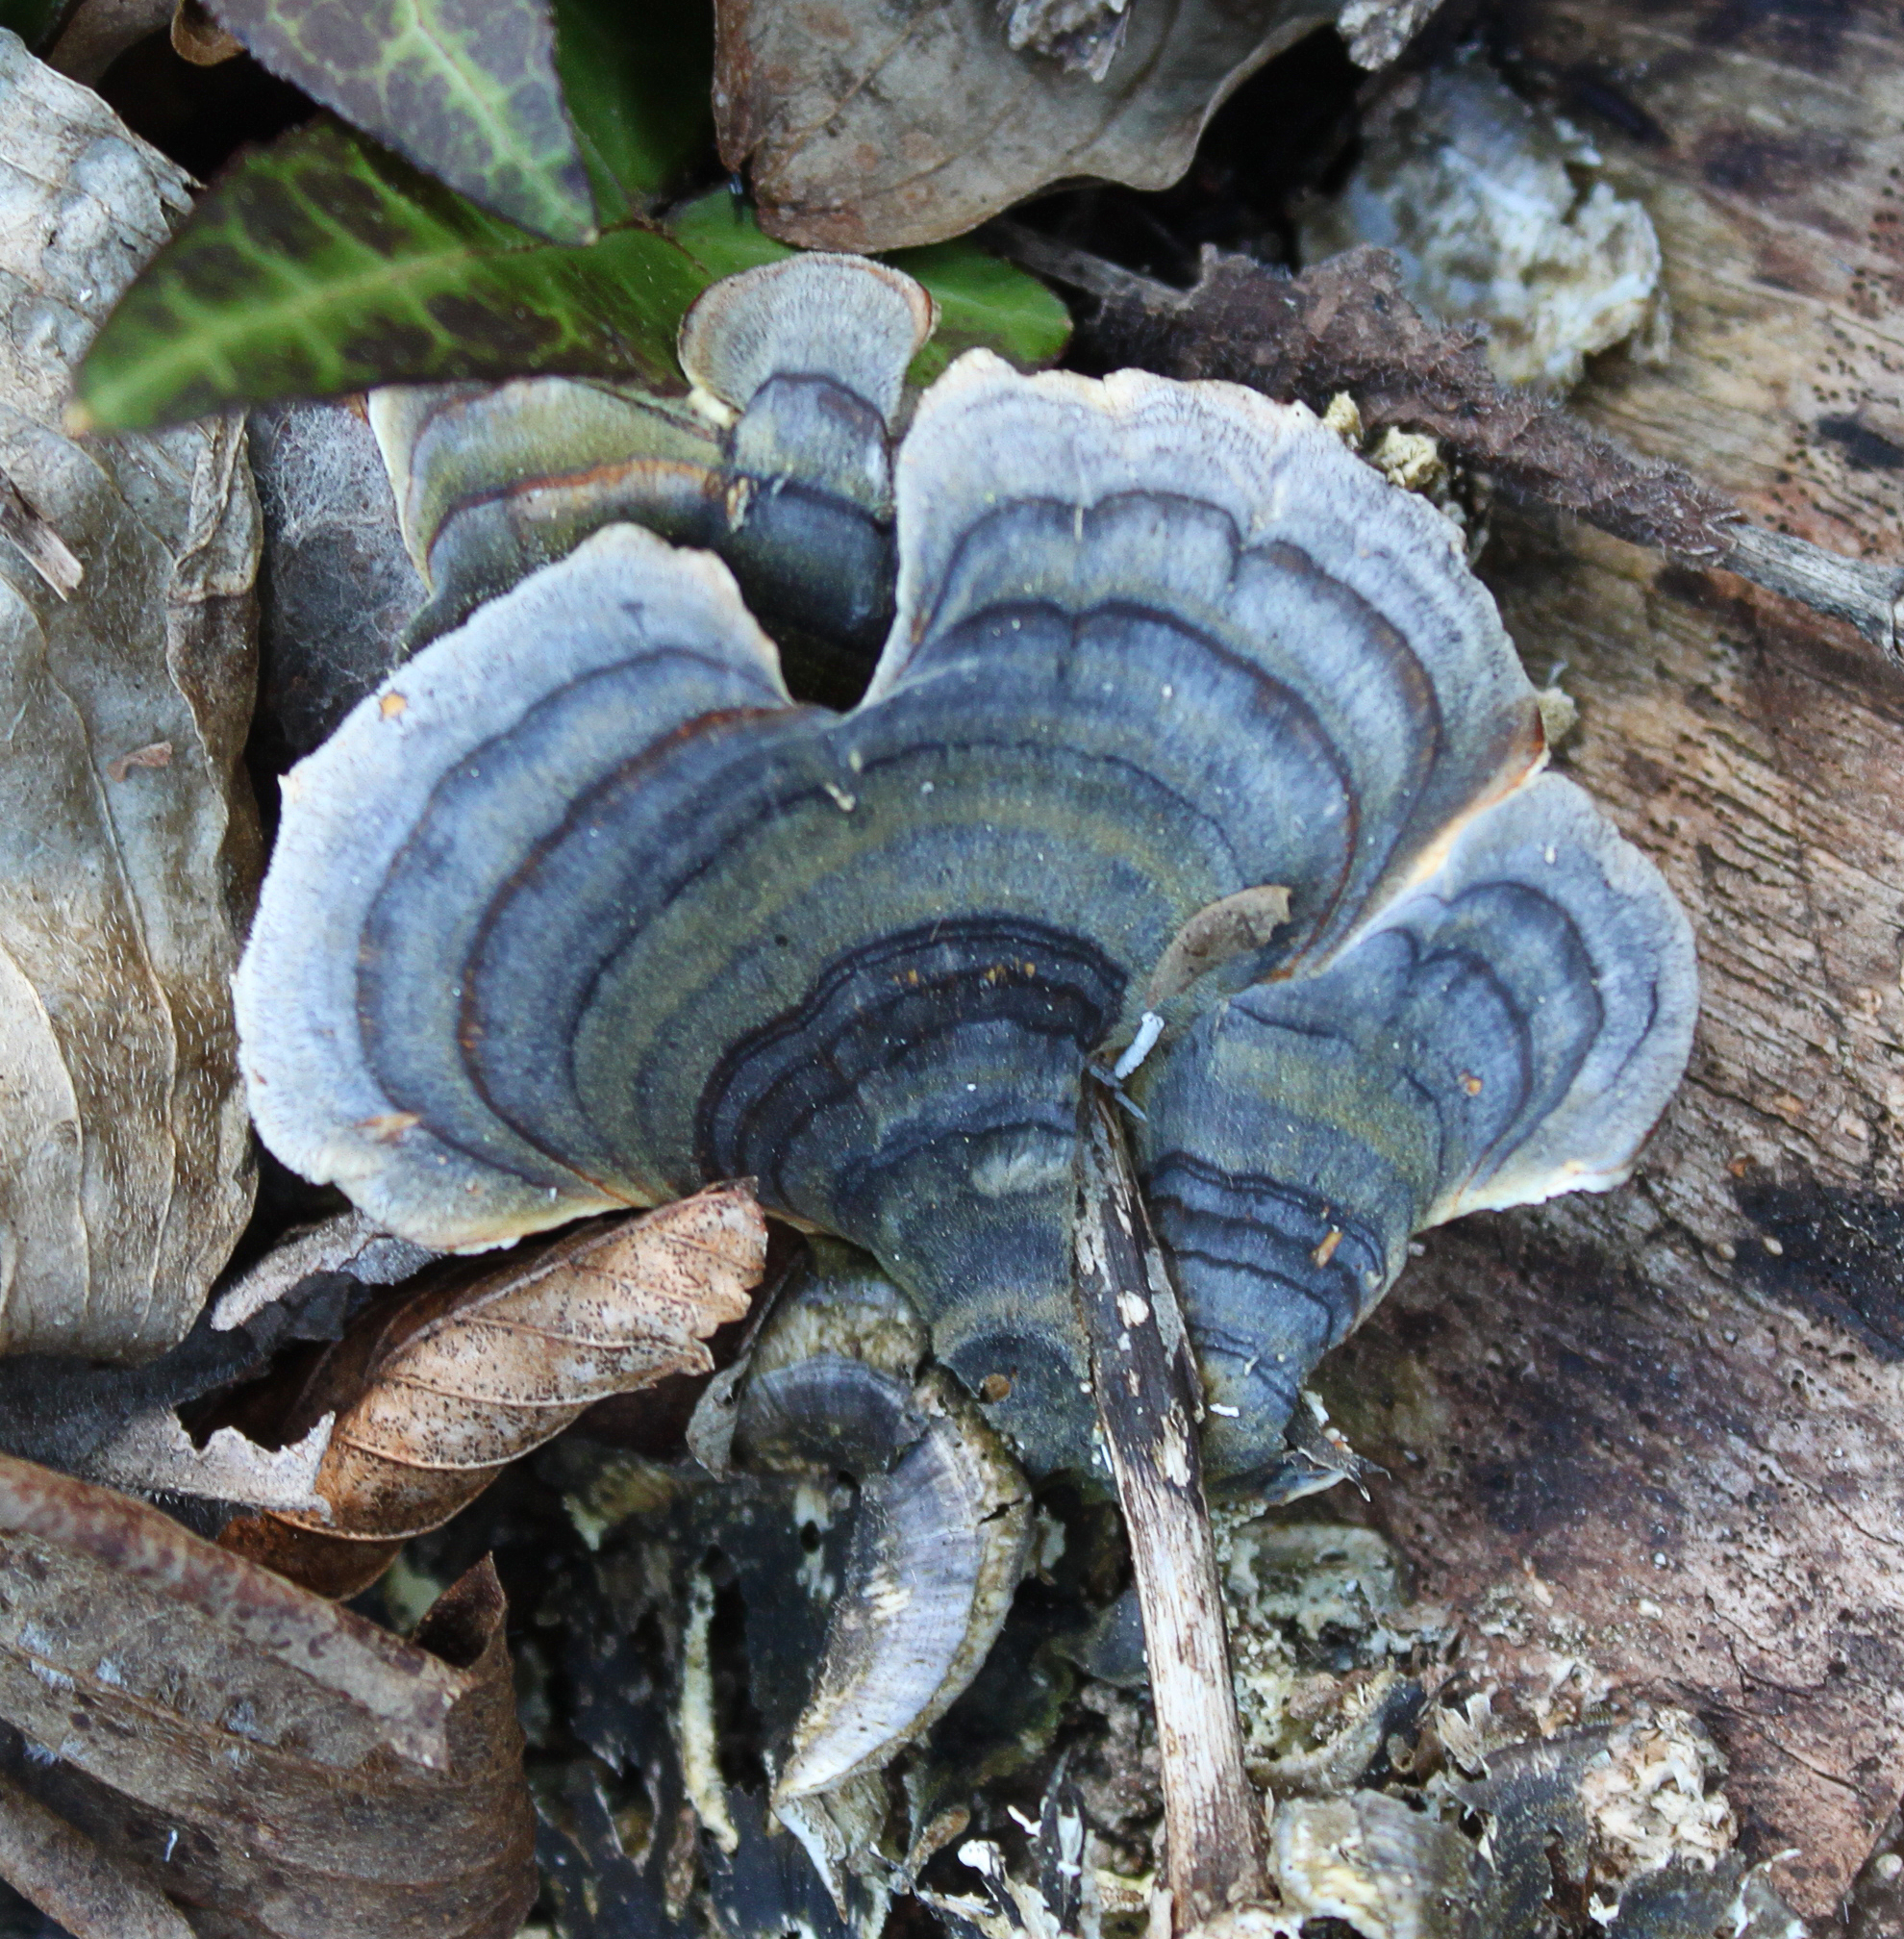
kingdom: Fungi
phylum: Basidiomycota
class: Agaricomycetes
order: Polyporales
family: Polyporaceae
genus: Trametes
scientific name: Trametes versicolor
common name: Turkeytail
